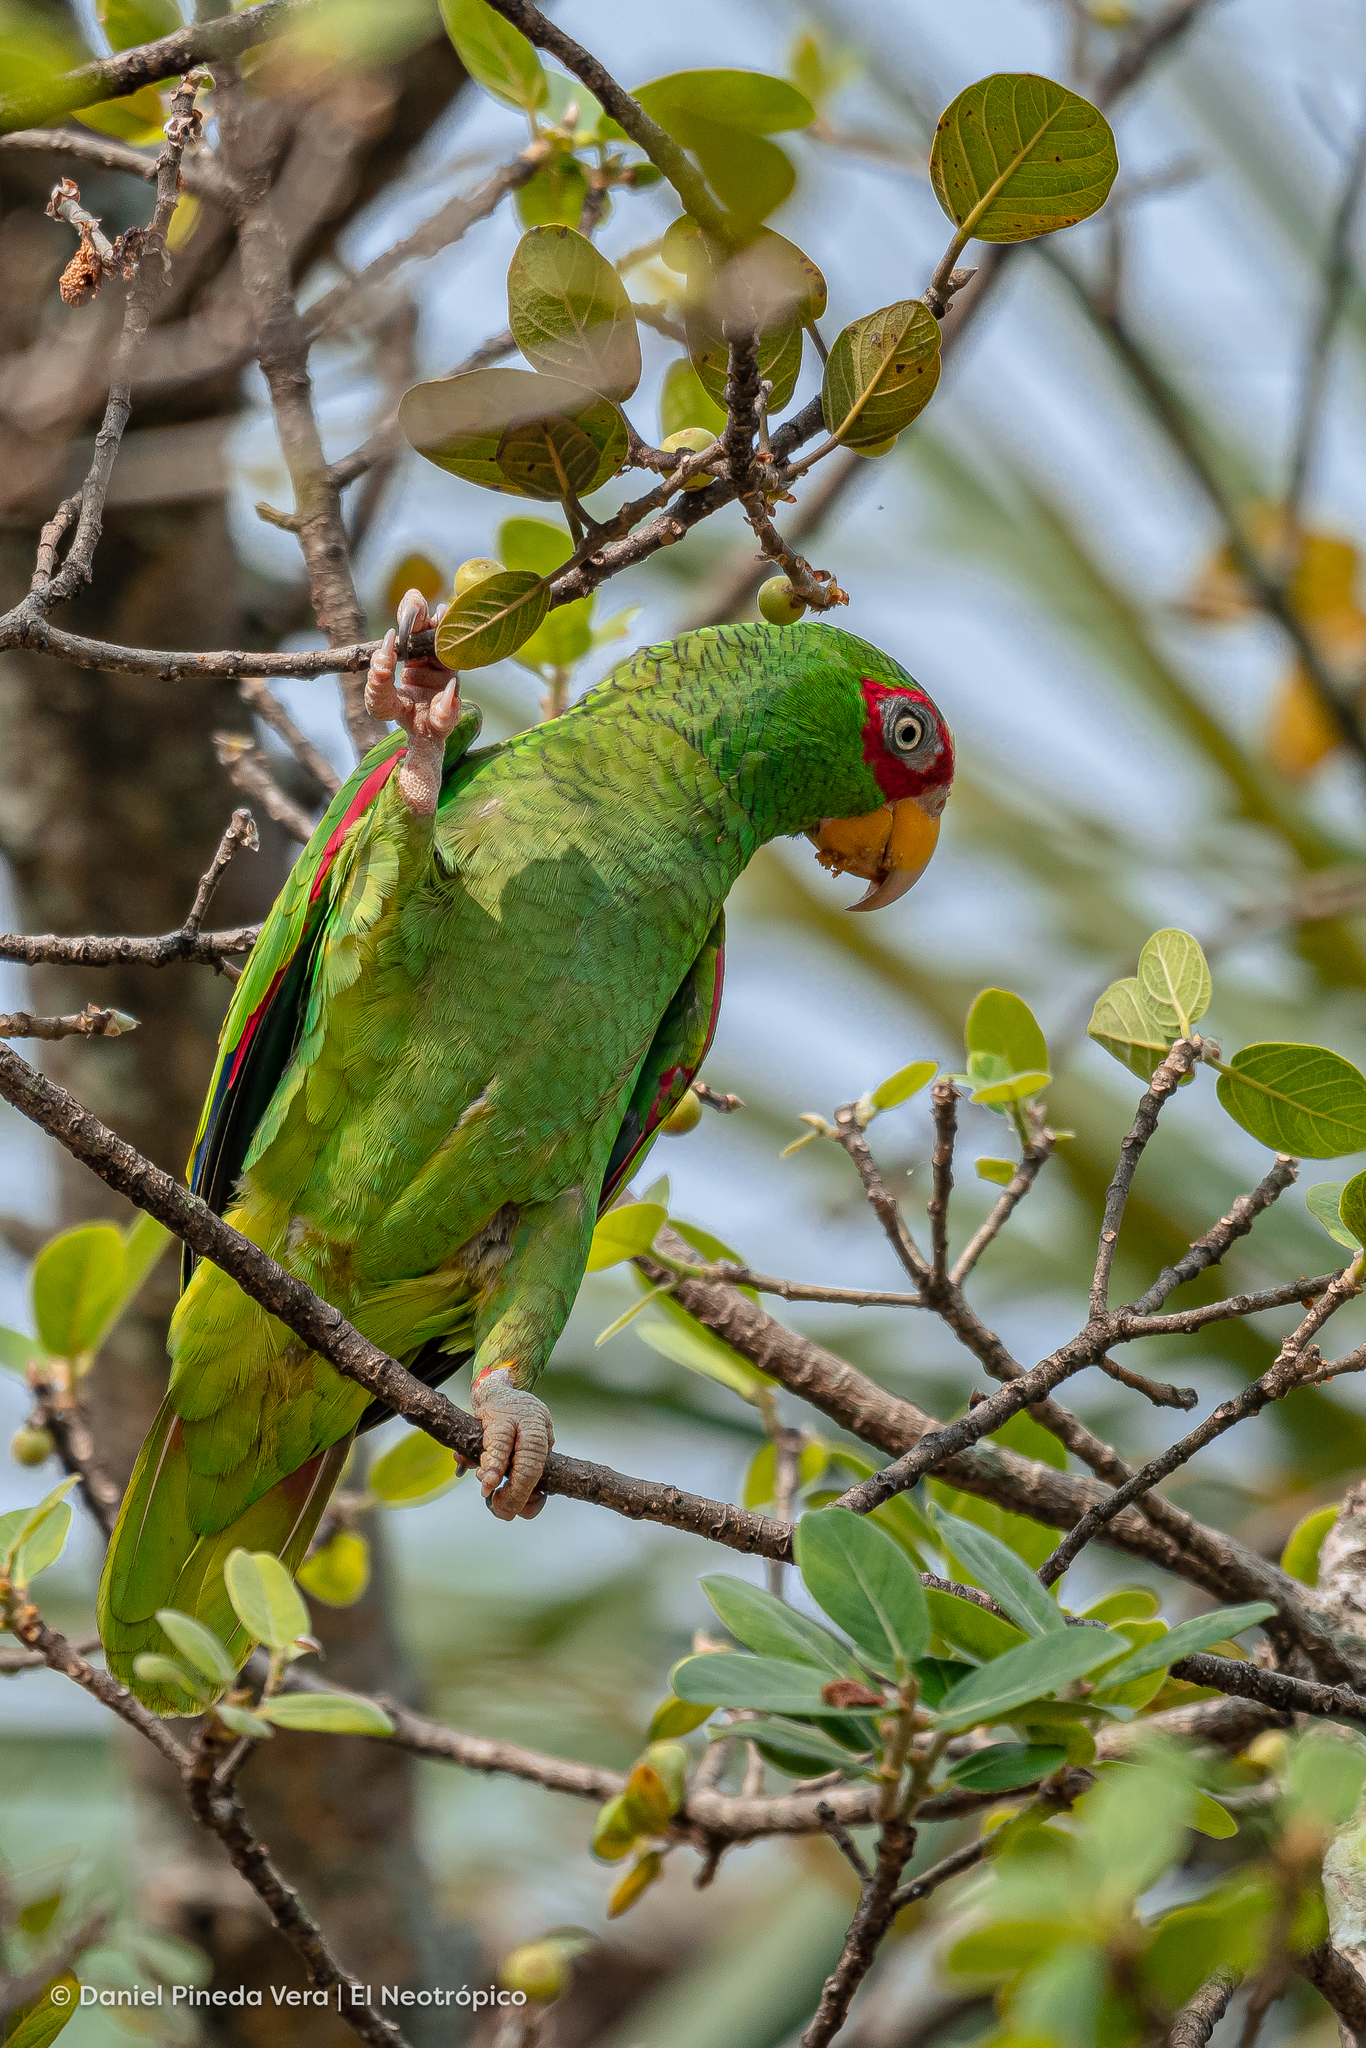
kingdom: Animalia
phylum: Chordata
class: Aves
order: Psittaciformes
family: Psittacidae
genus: Amazona
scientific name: Amazona albifrons
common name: White-fronted amazon
